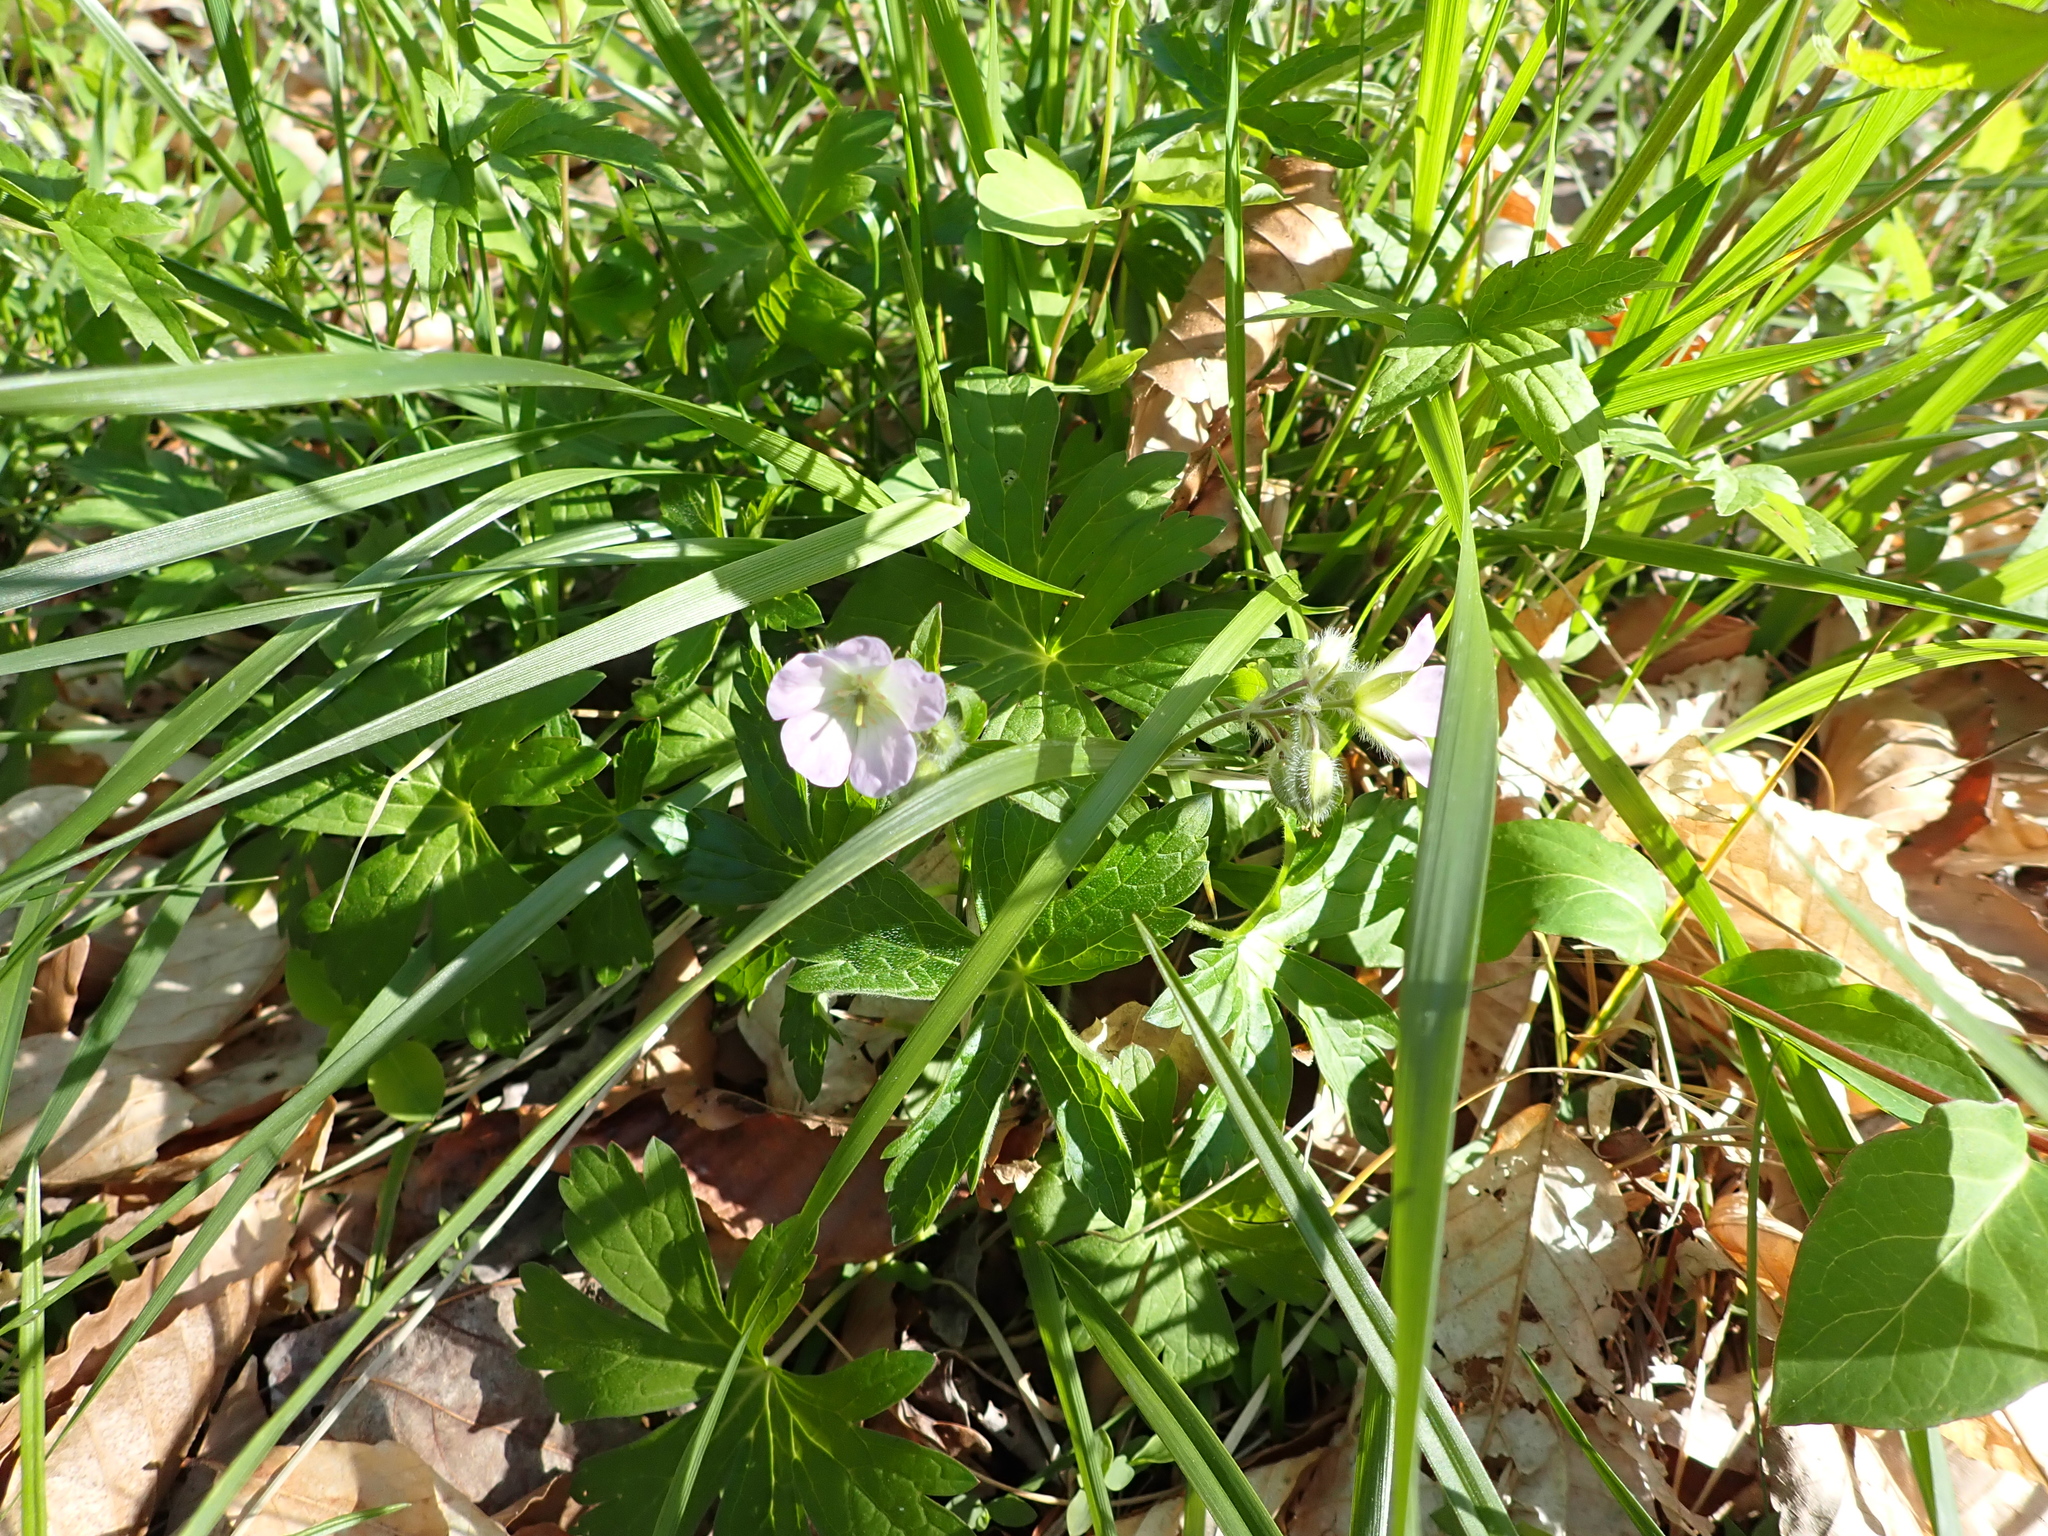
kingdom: Plantae
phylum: Tracheophyta
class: Magnoliopsida
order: Geraniales
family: Geraniaceae
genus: Geranium
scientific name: Geranium maculatum
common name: Spotted geranium
